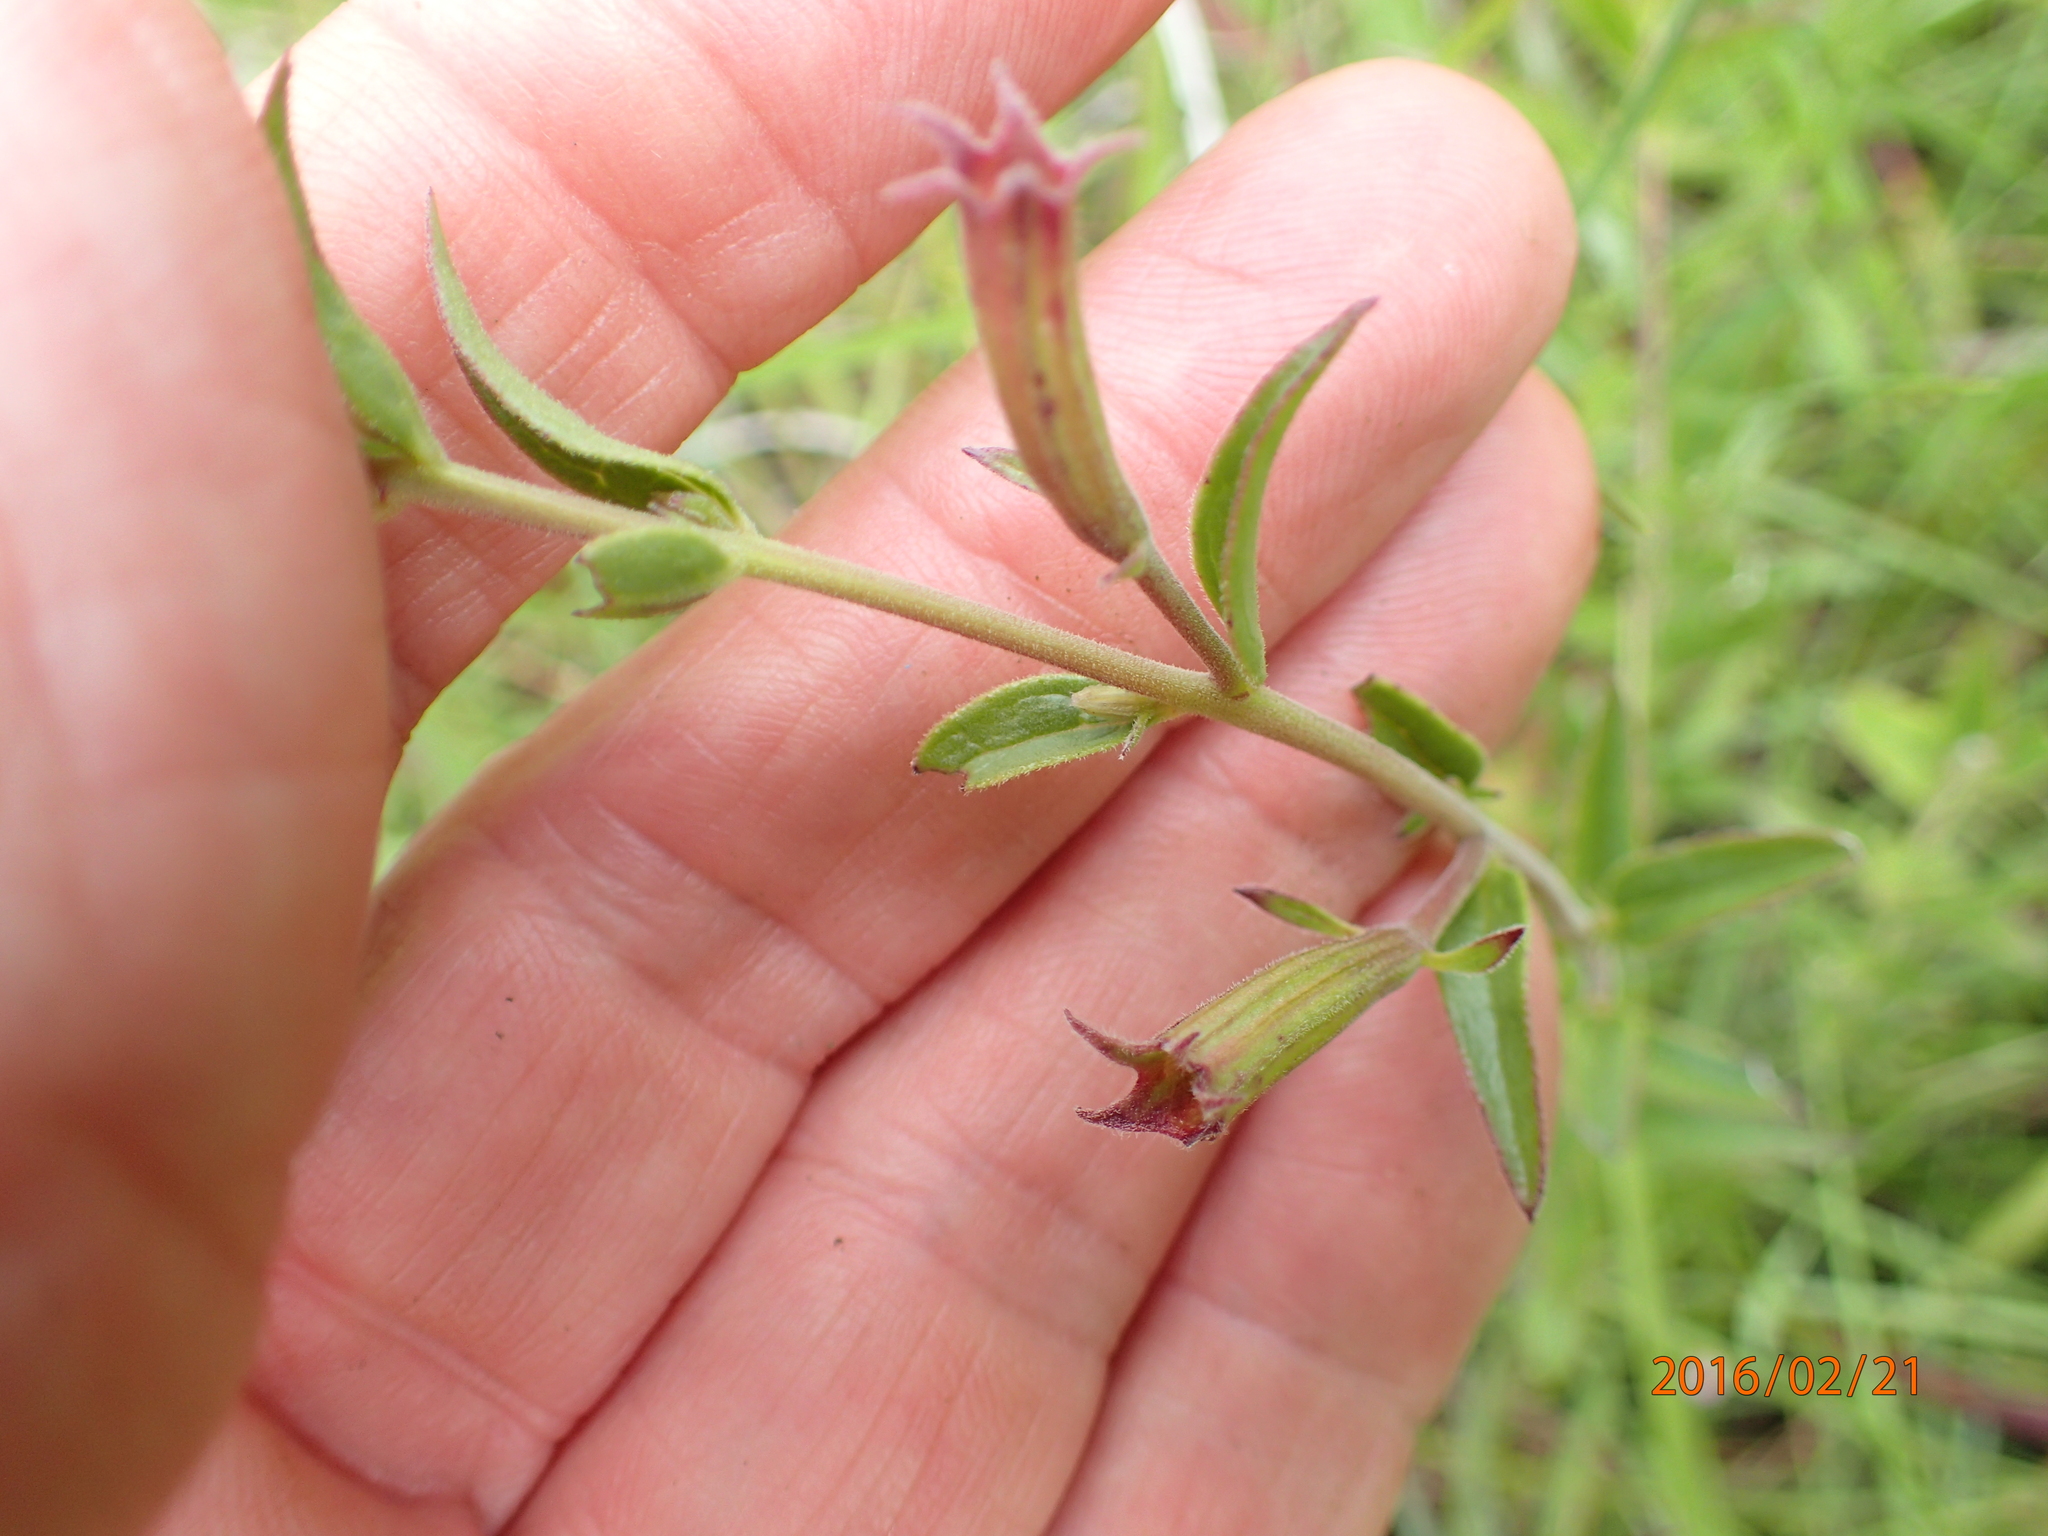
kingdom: Plantae
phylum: Tracheophyta
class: Magnoliopsida
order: Lamiales
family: Orobanchaceae
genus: Cycnium
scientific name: Cycnium racemosum
